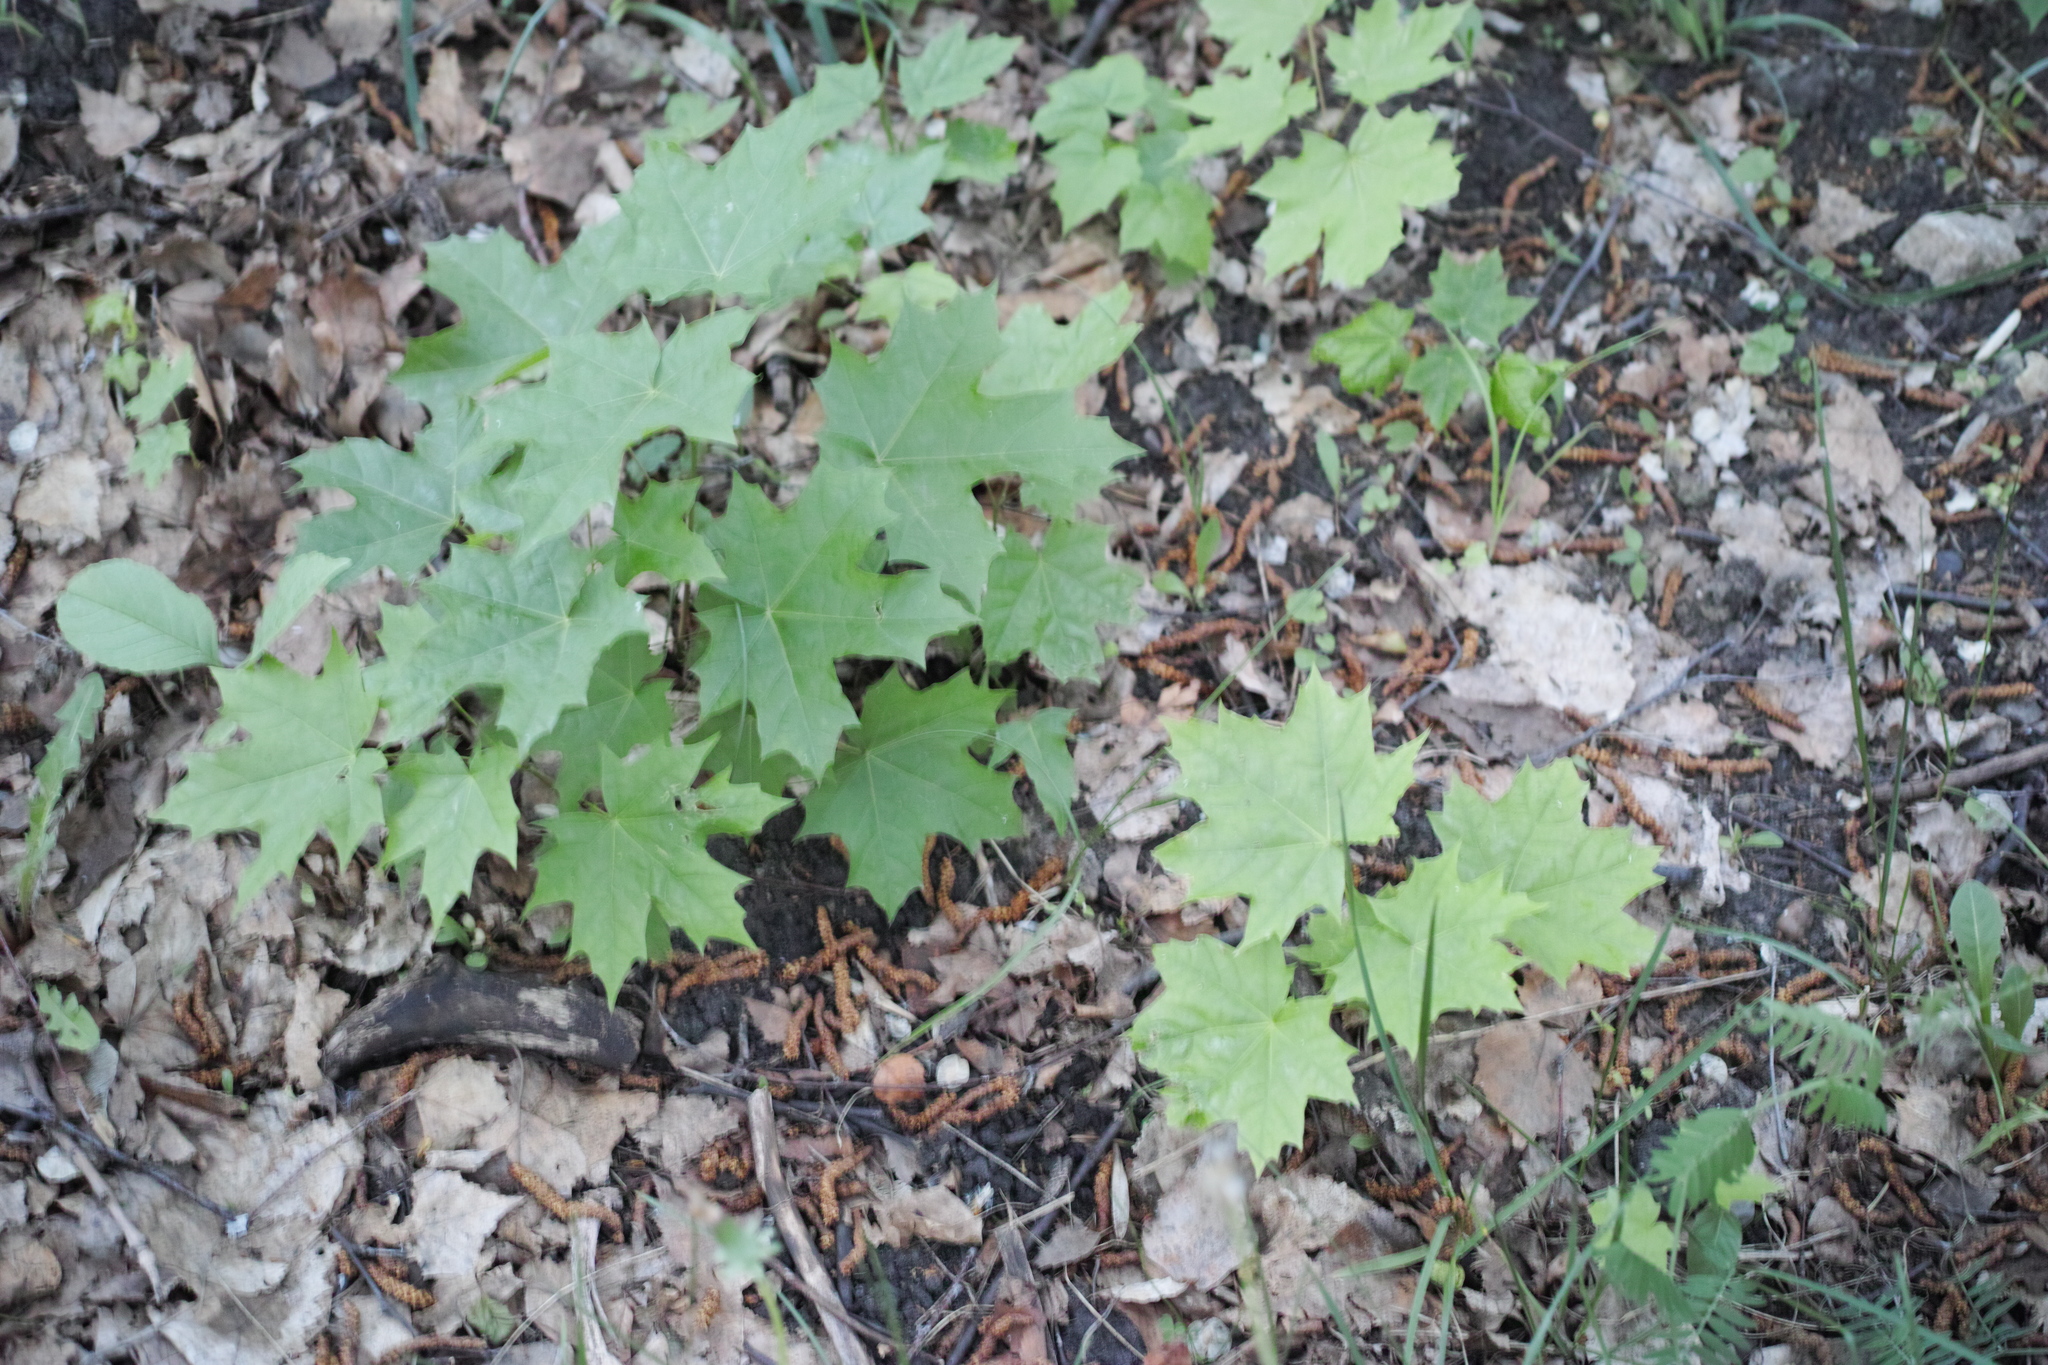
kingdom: Plantae
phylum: Tracheophyta
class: Magnoliopsida
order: Sapindales
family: Sapindaceae
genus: Acer
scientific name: Acer platanoides
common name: Norway maple
